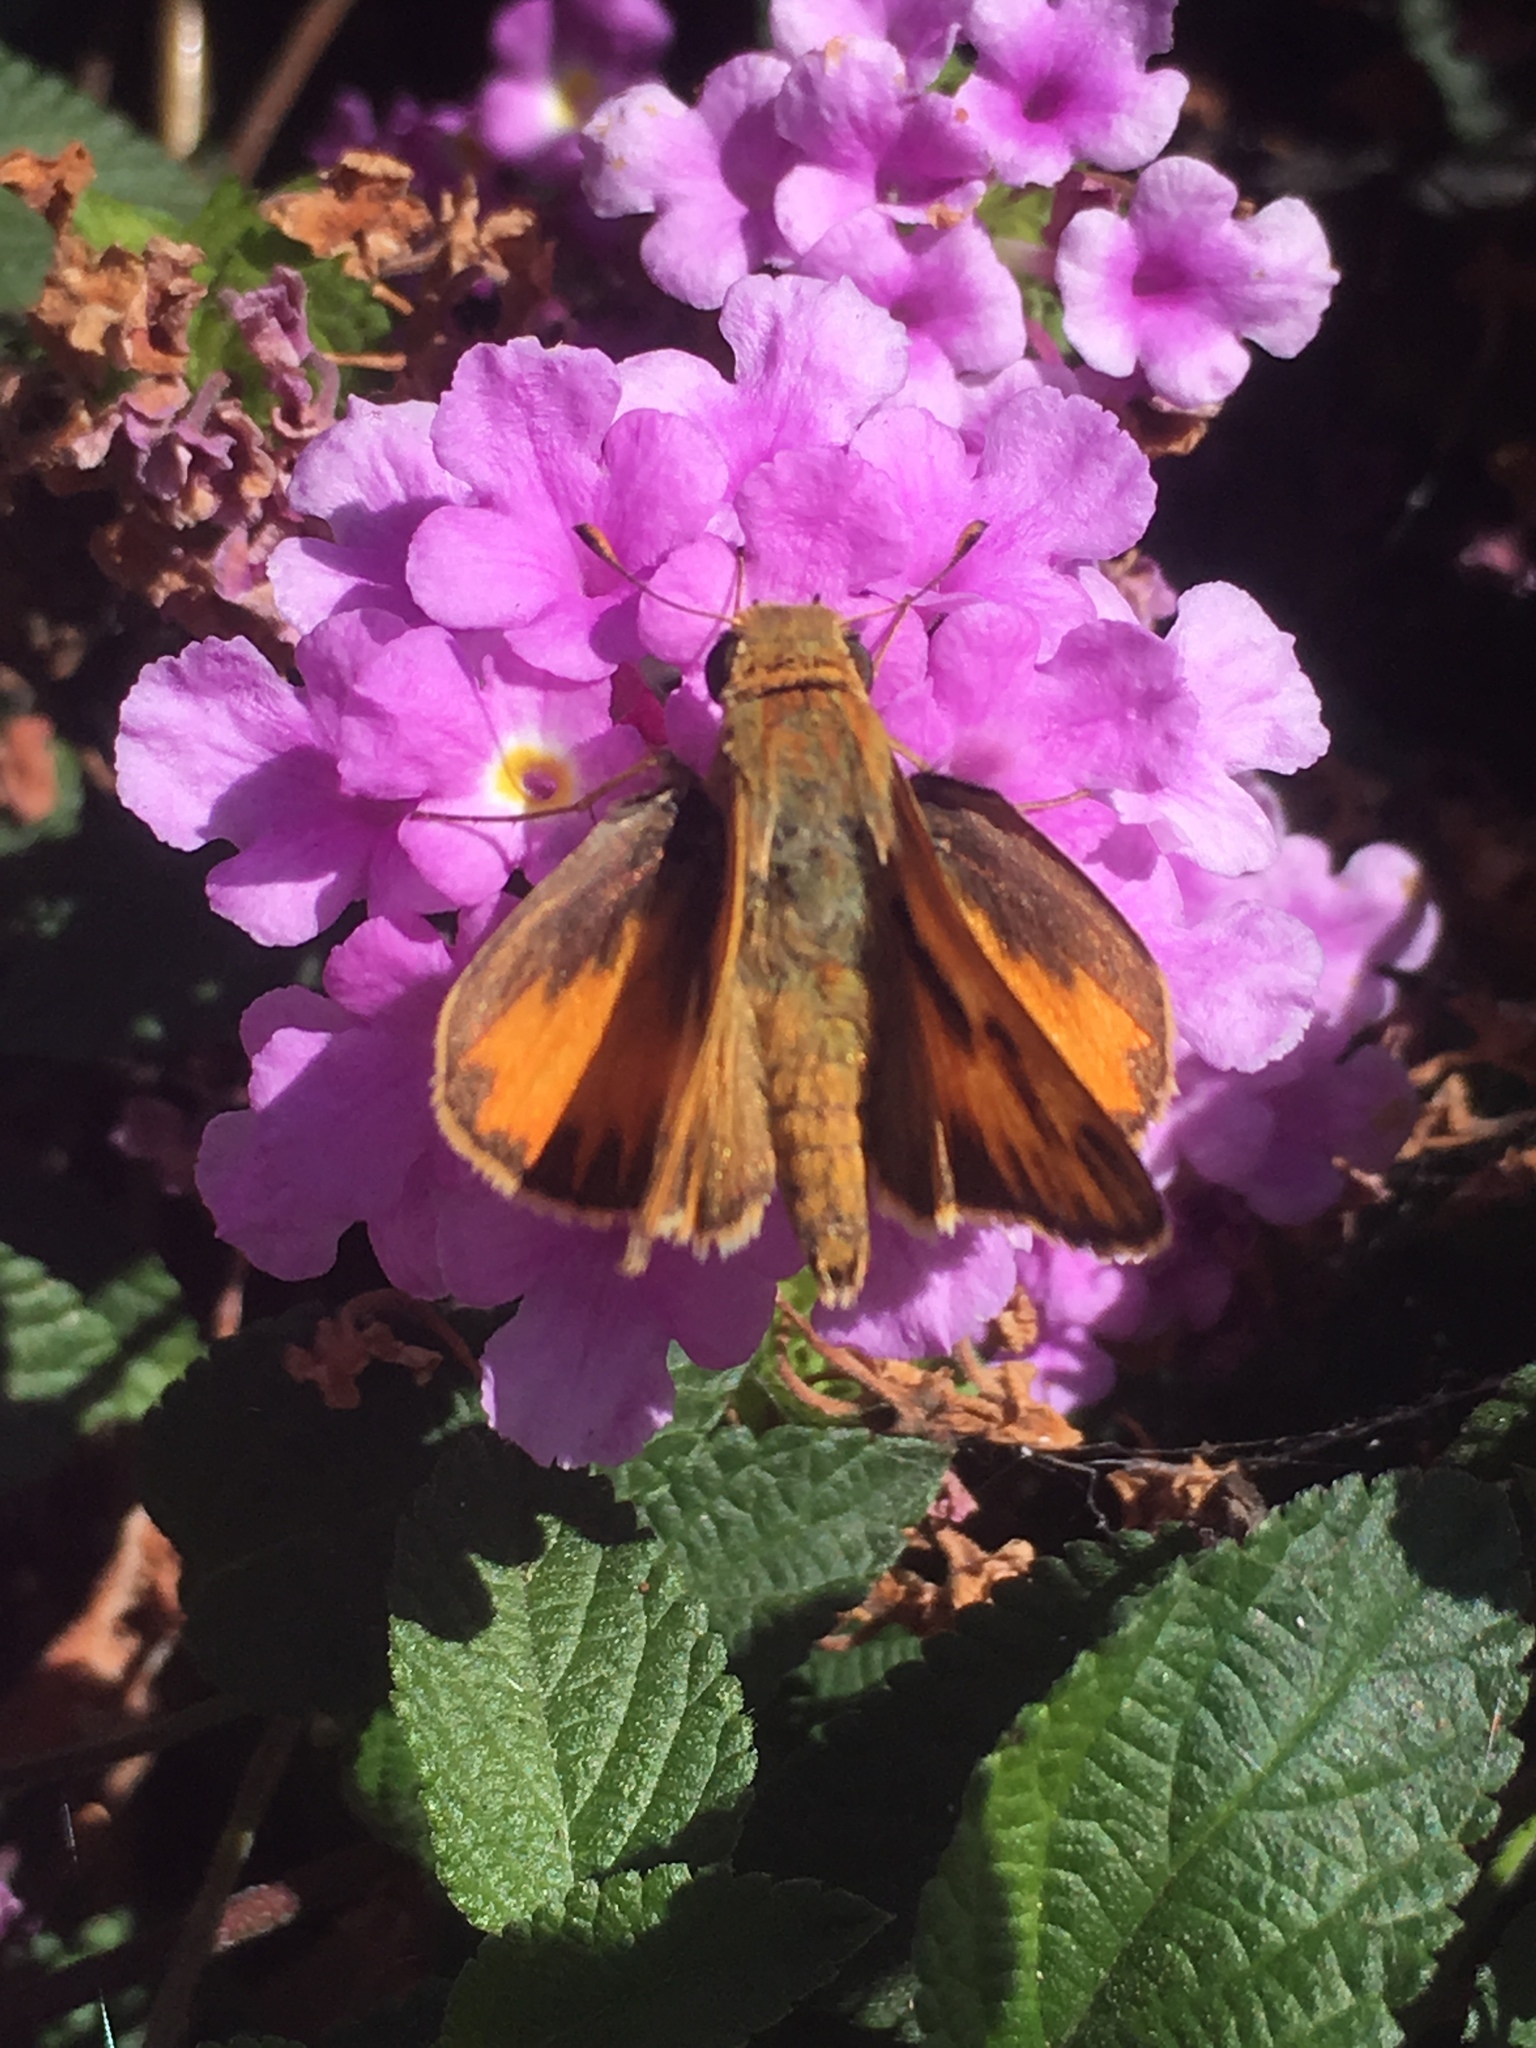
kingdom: Animalia
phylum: Arthropoda
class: Insecta
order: Lepidoptera
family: Hesperiidae
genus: Hylephila
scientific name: Hylephila phyleus
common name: Fiery skipper
